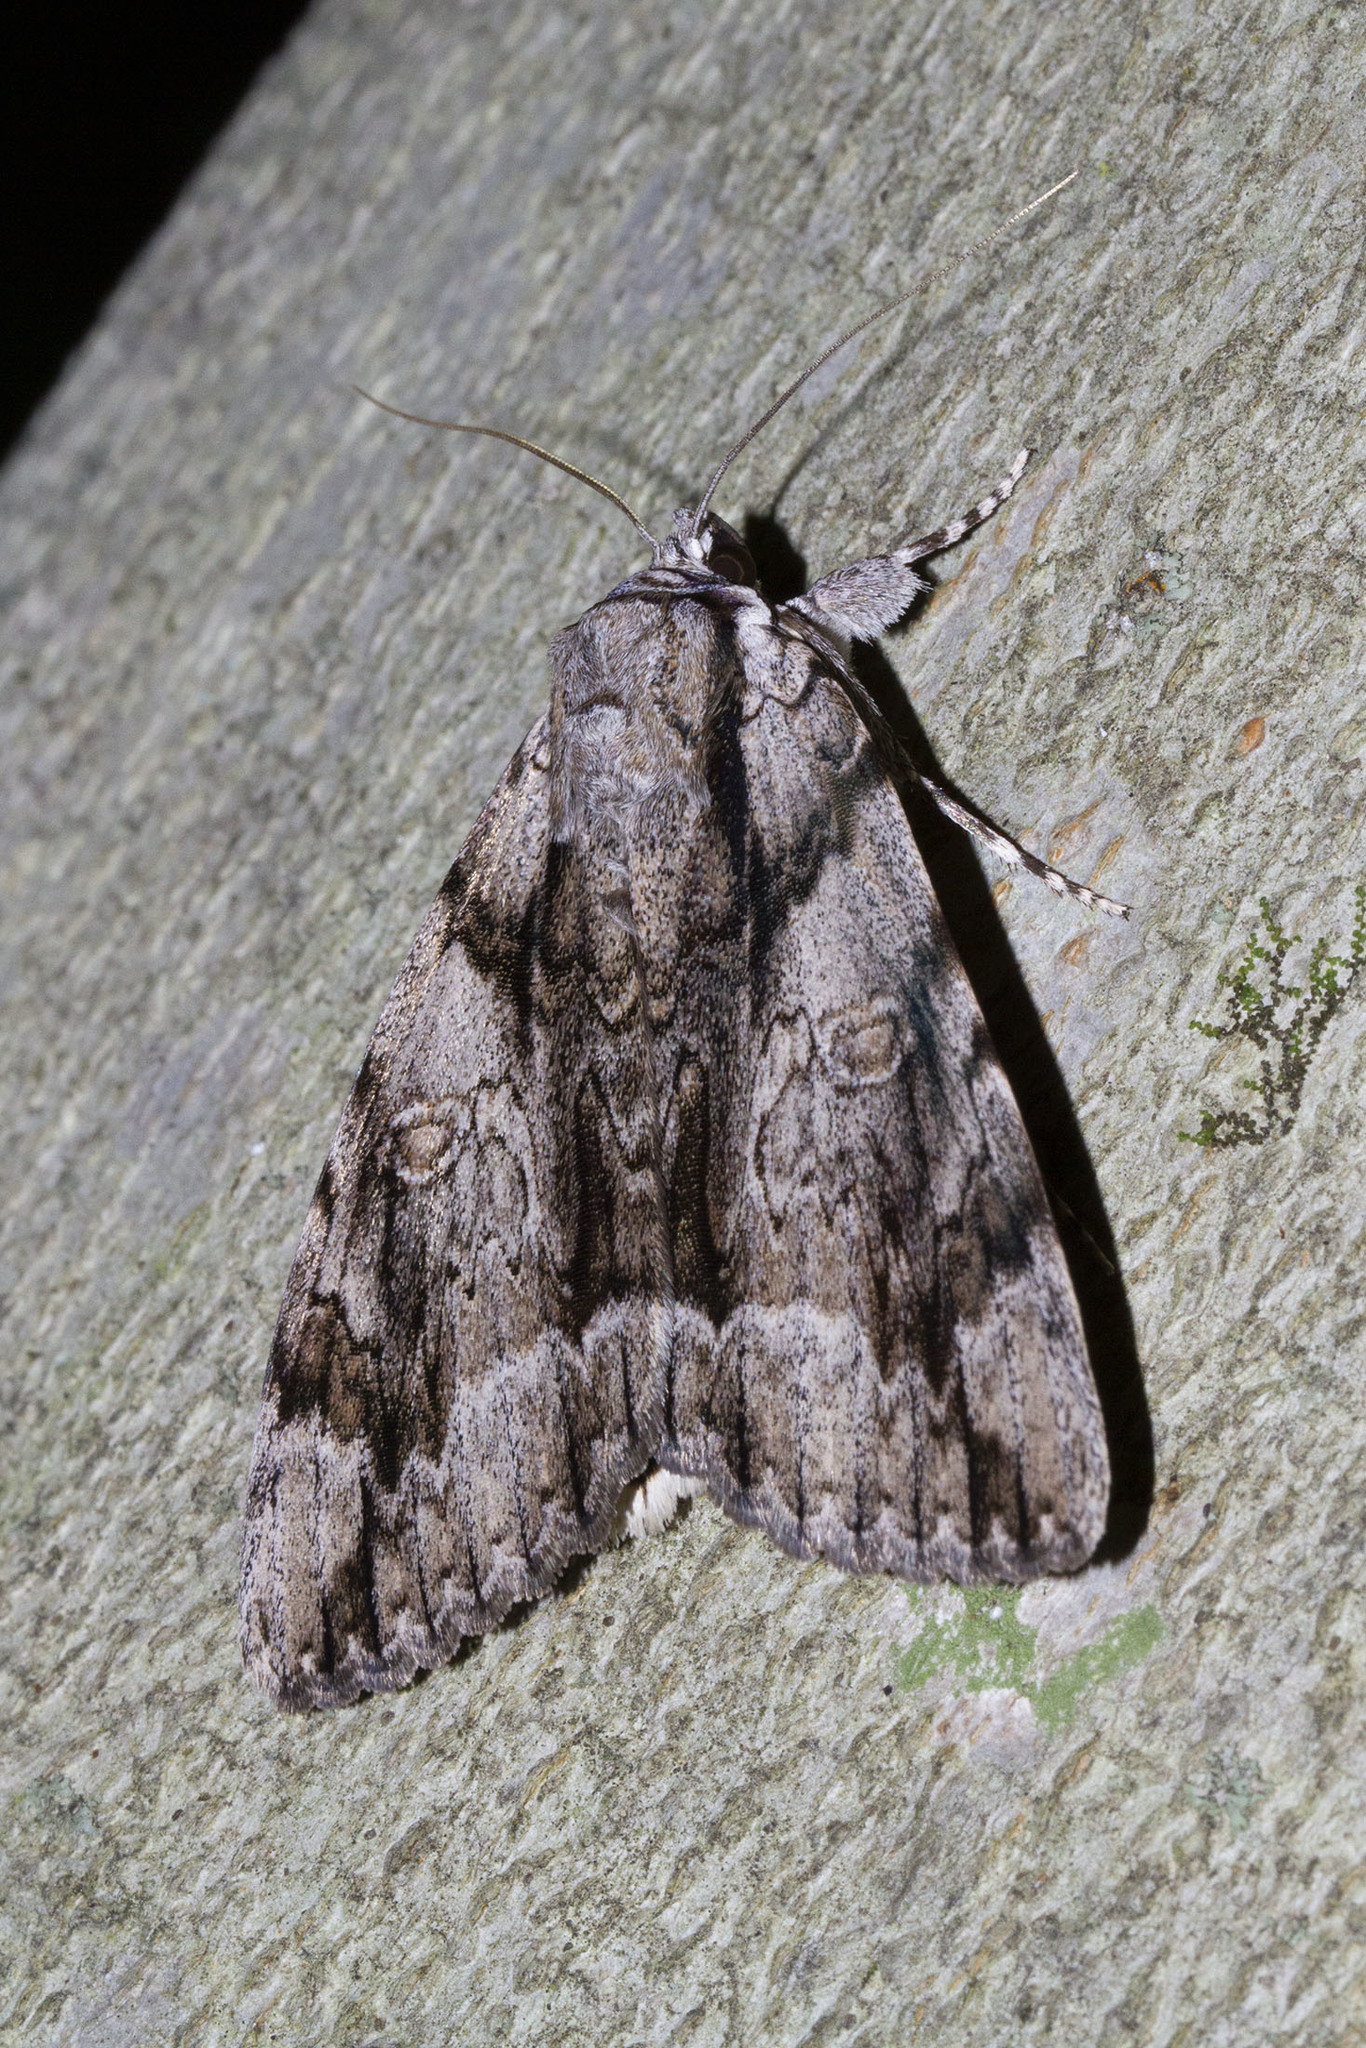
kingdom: Animalia
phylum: Arthropoda
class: Insecta
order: Lepidoptera
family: Erebidae
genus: Catocala
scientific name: Catocala vidua
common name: The widow
